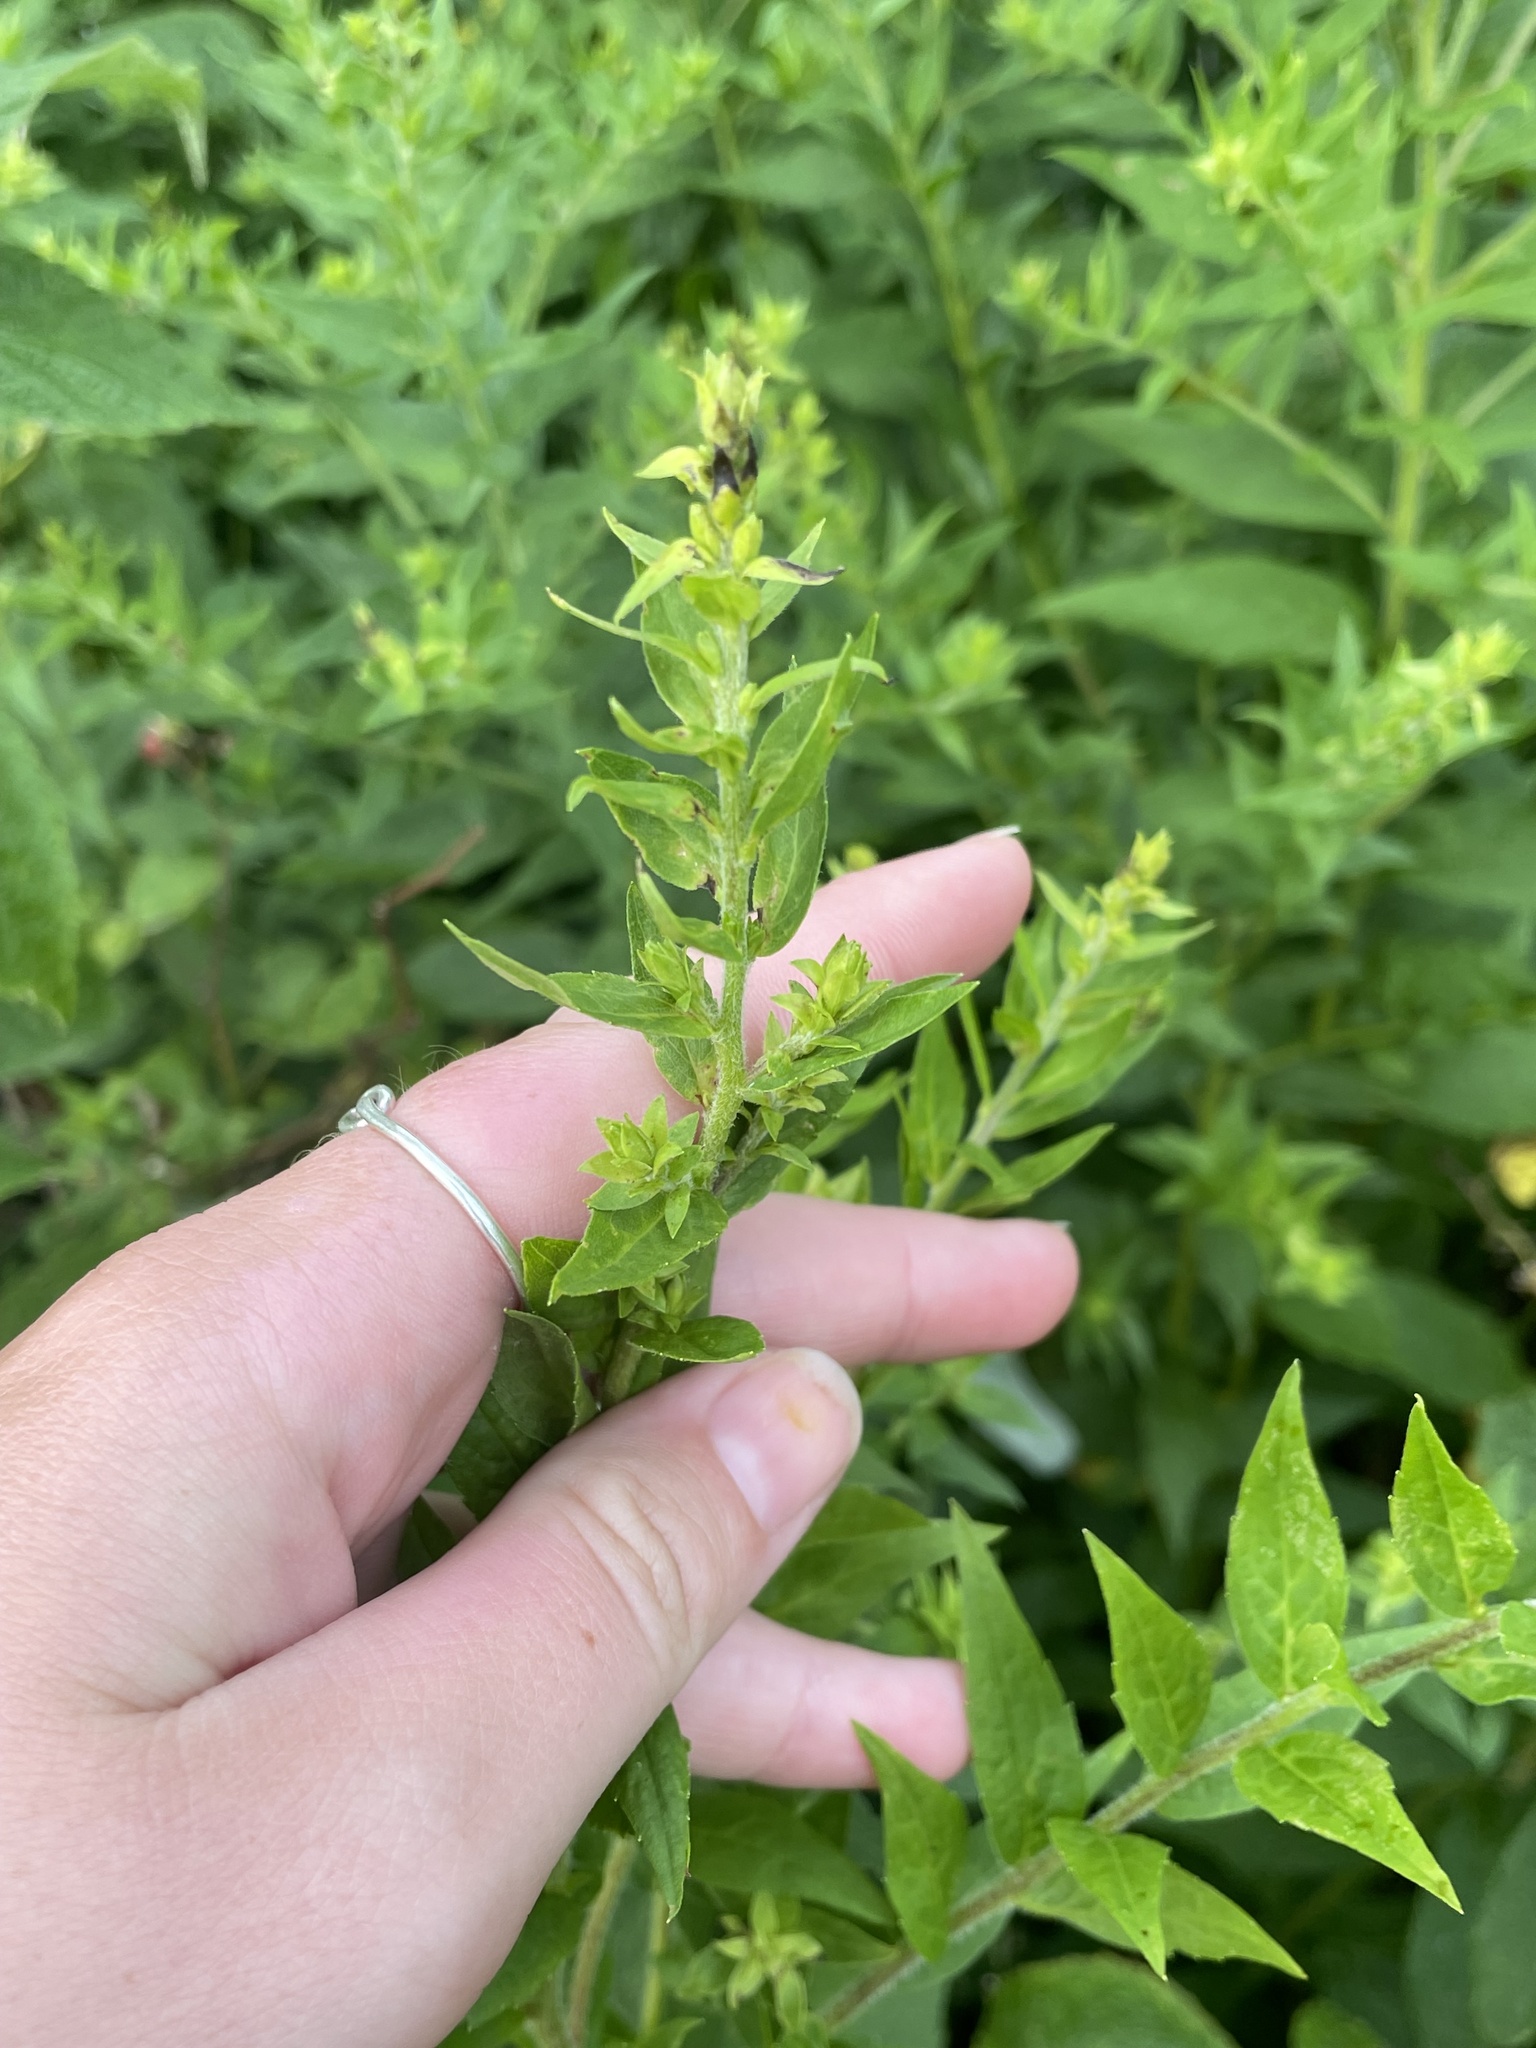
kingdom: Plantae
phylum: Tracheophyta
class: Magnoliopsida
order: Asterales
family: Asteraceae
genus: Solidago
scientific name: Solidago rugosa
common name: Rough-stemmed goldenrod
